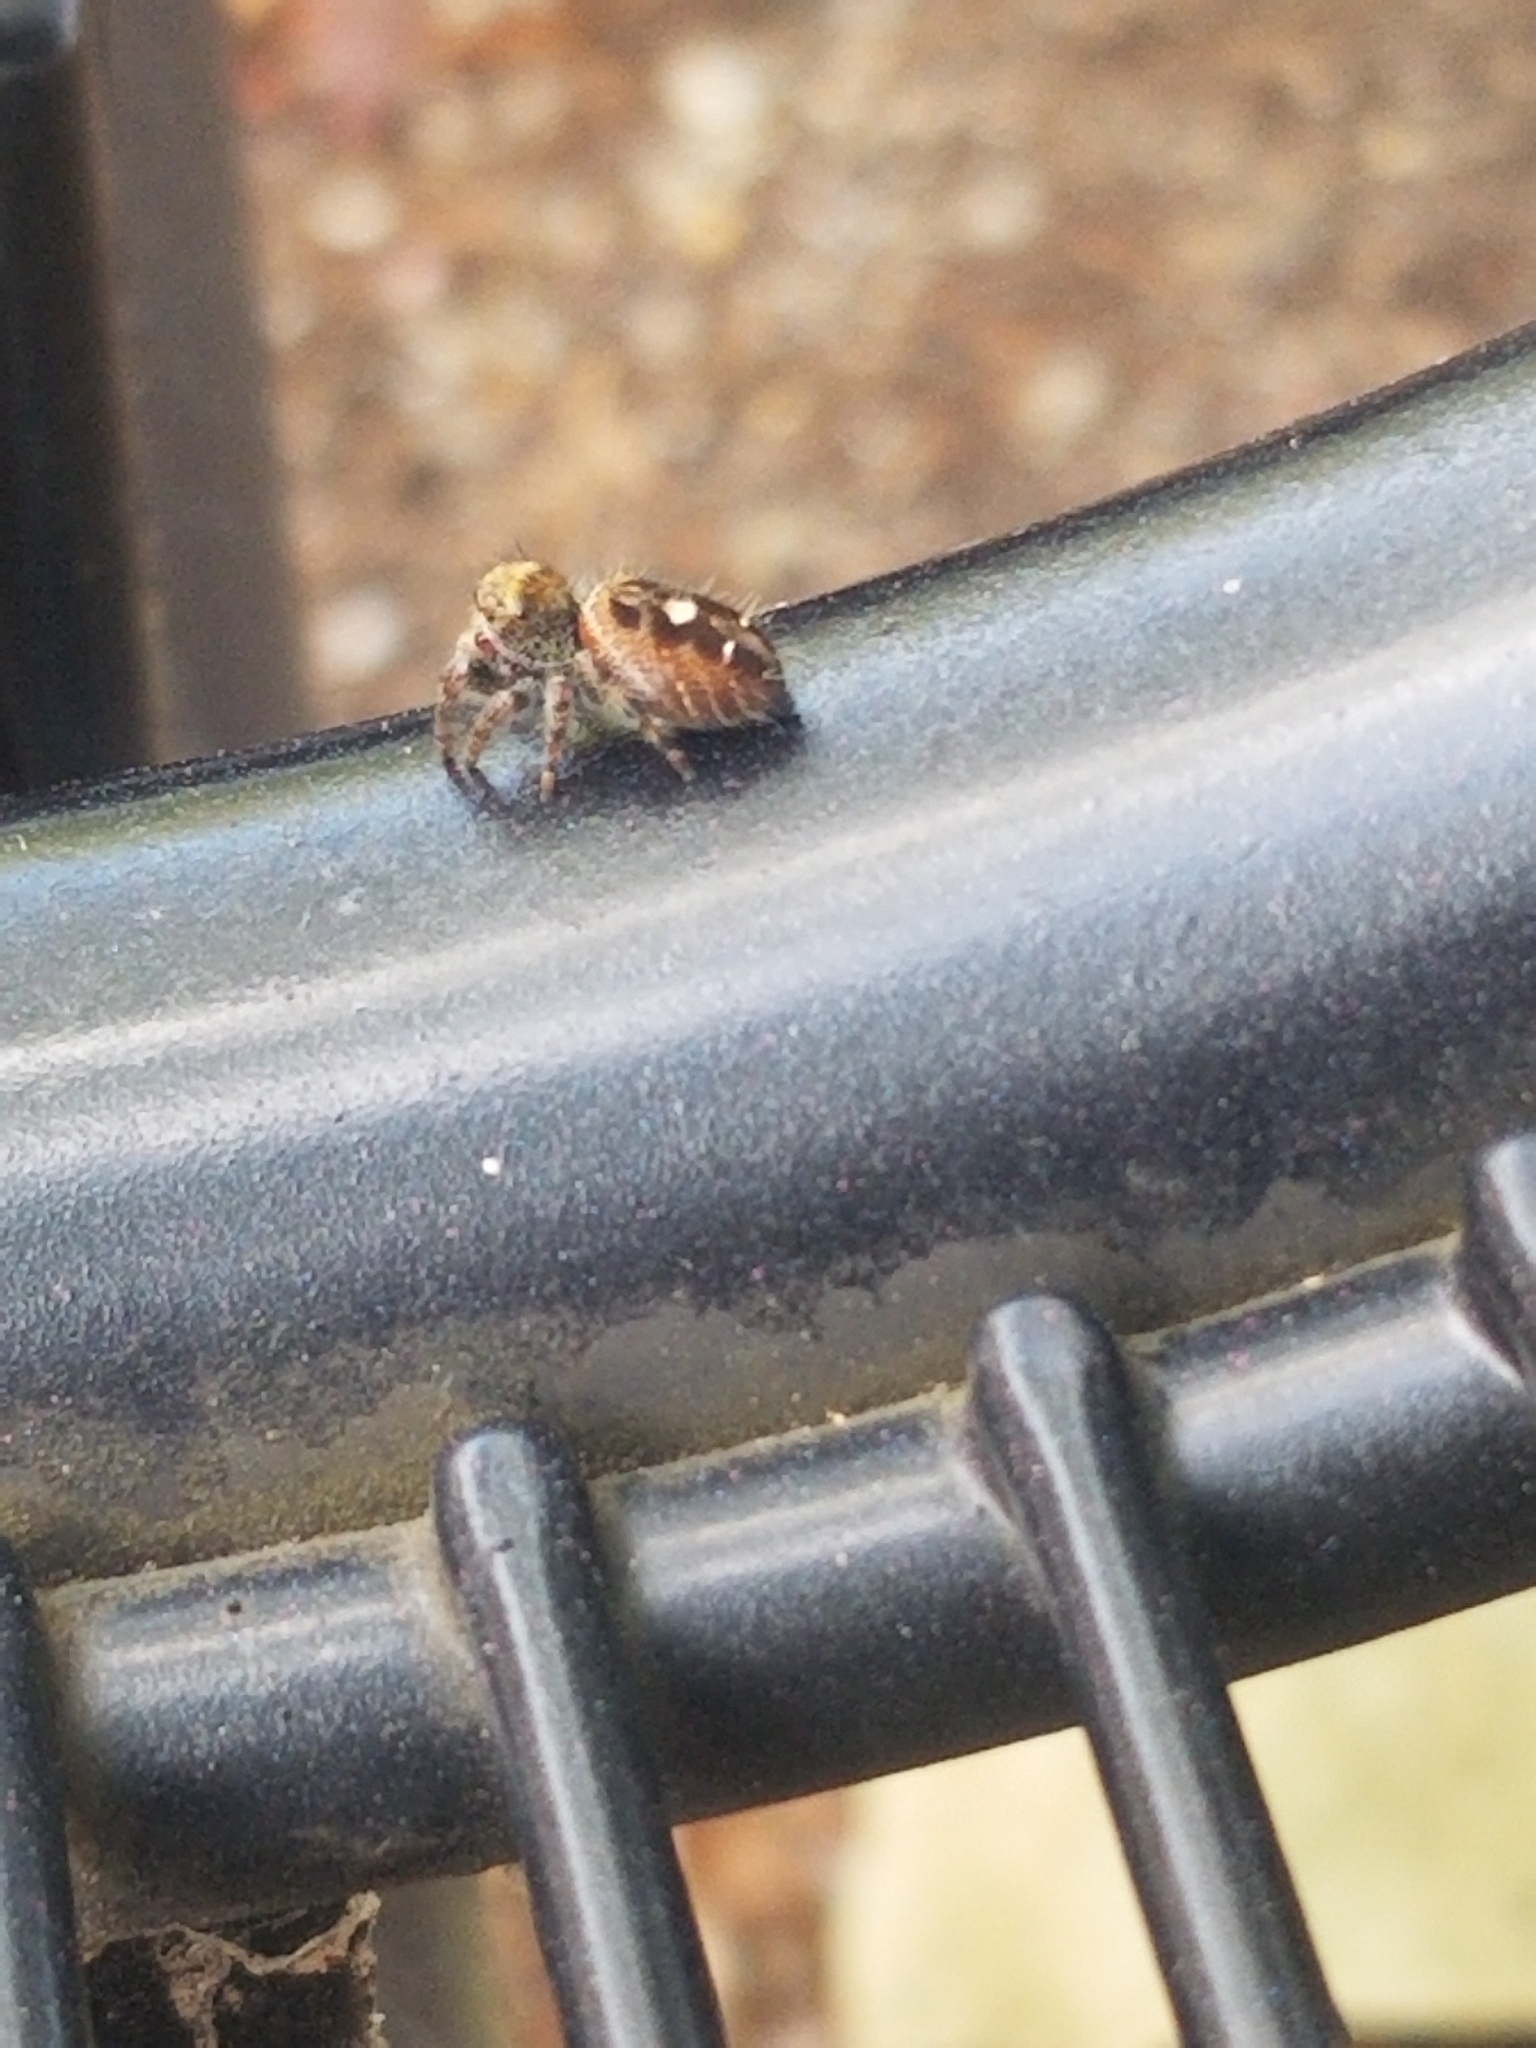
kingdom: Animalia
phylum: Arthropoda
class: Arachnida
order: Araneae
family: Salticidae
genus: Phidippus
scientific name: Phidippus audax
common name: Bold jumper
